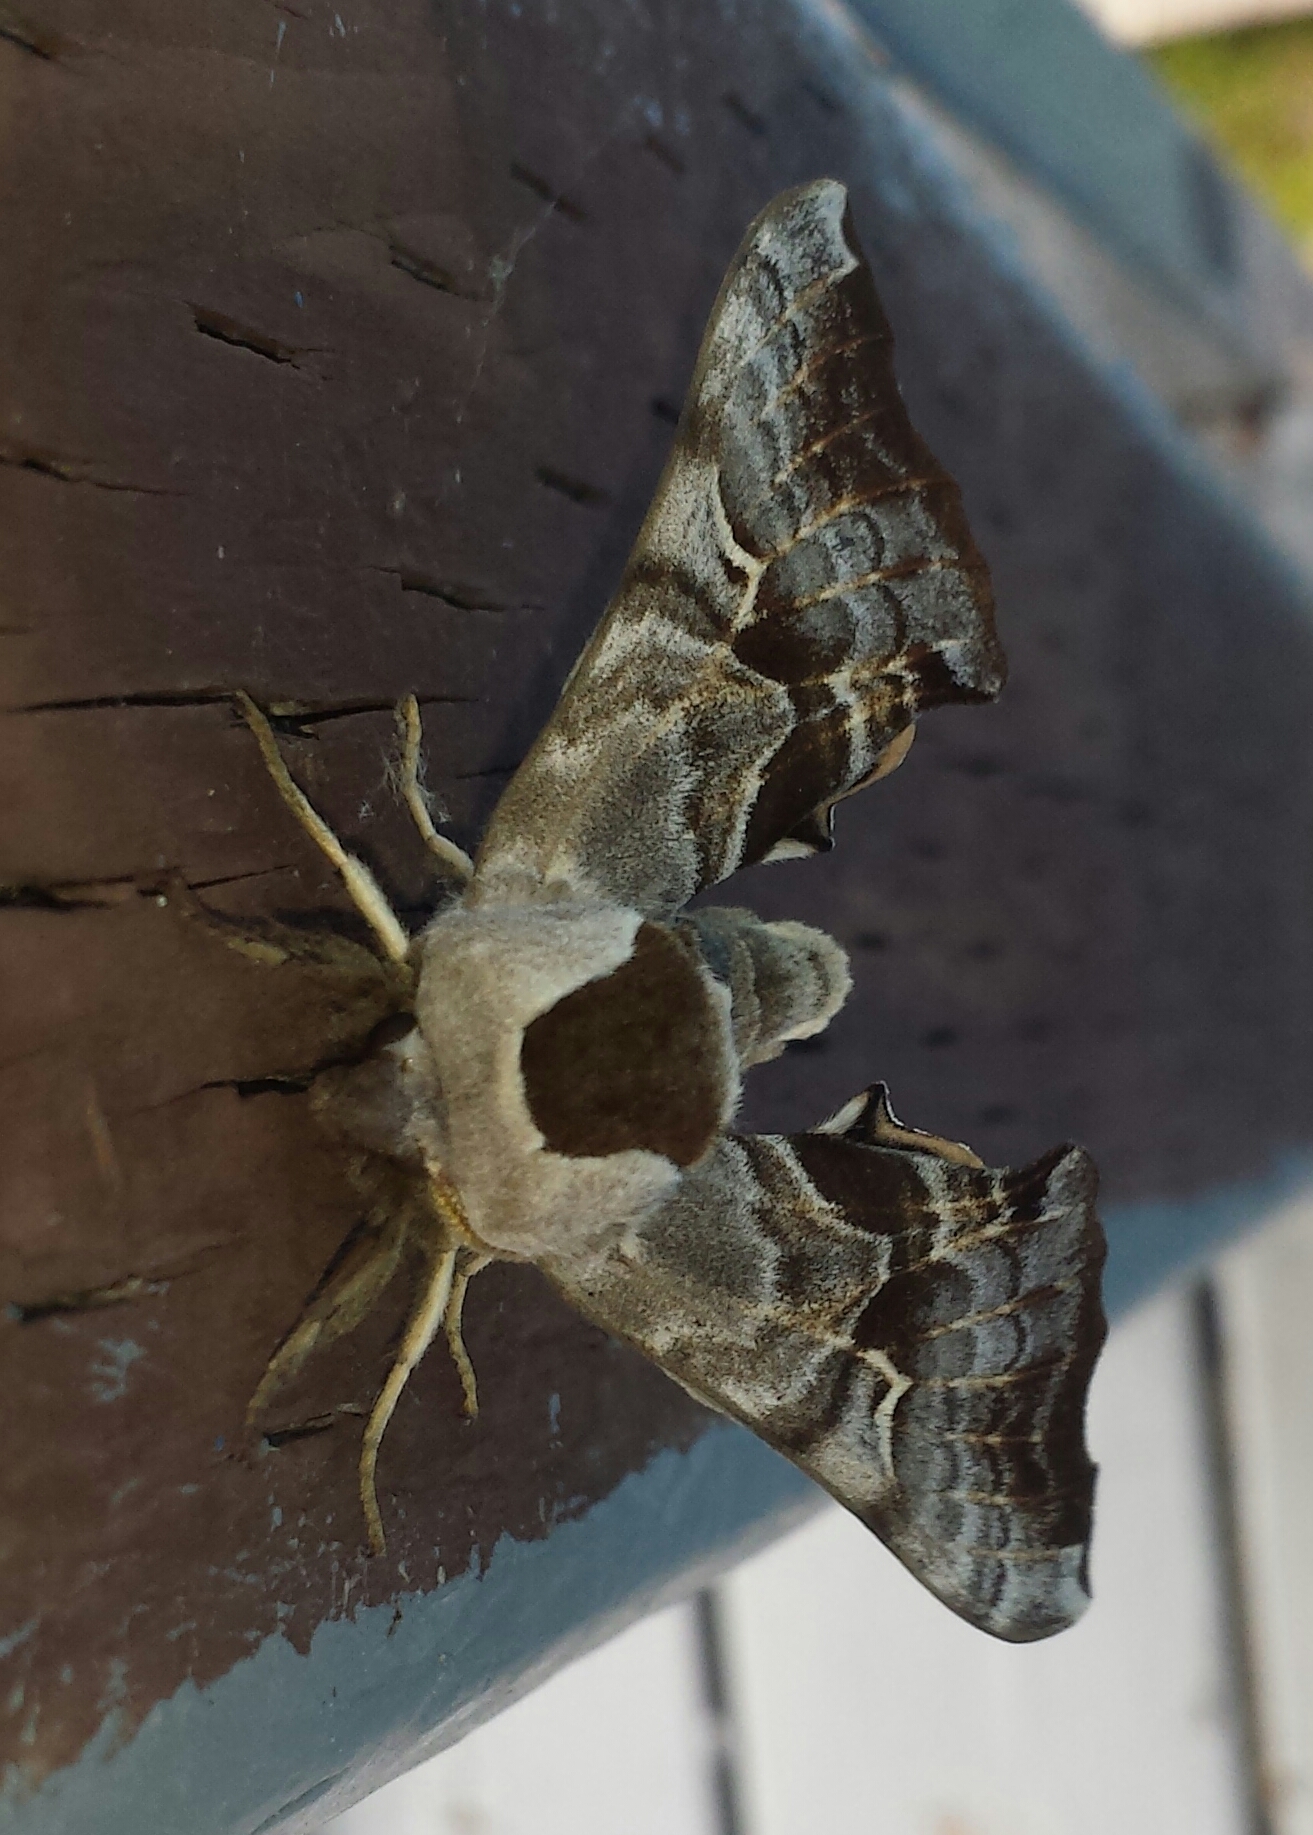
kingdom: Animalia
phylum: Arthropoda
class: Insecta
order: Lepidoptera
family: Sphingidae
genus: Smerinthus
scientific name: Smerinthus cerisyi
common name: Cerisy's sphinx moth
